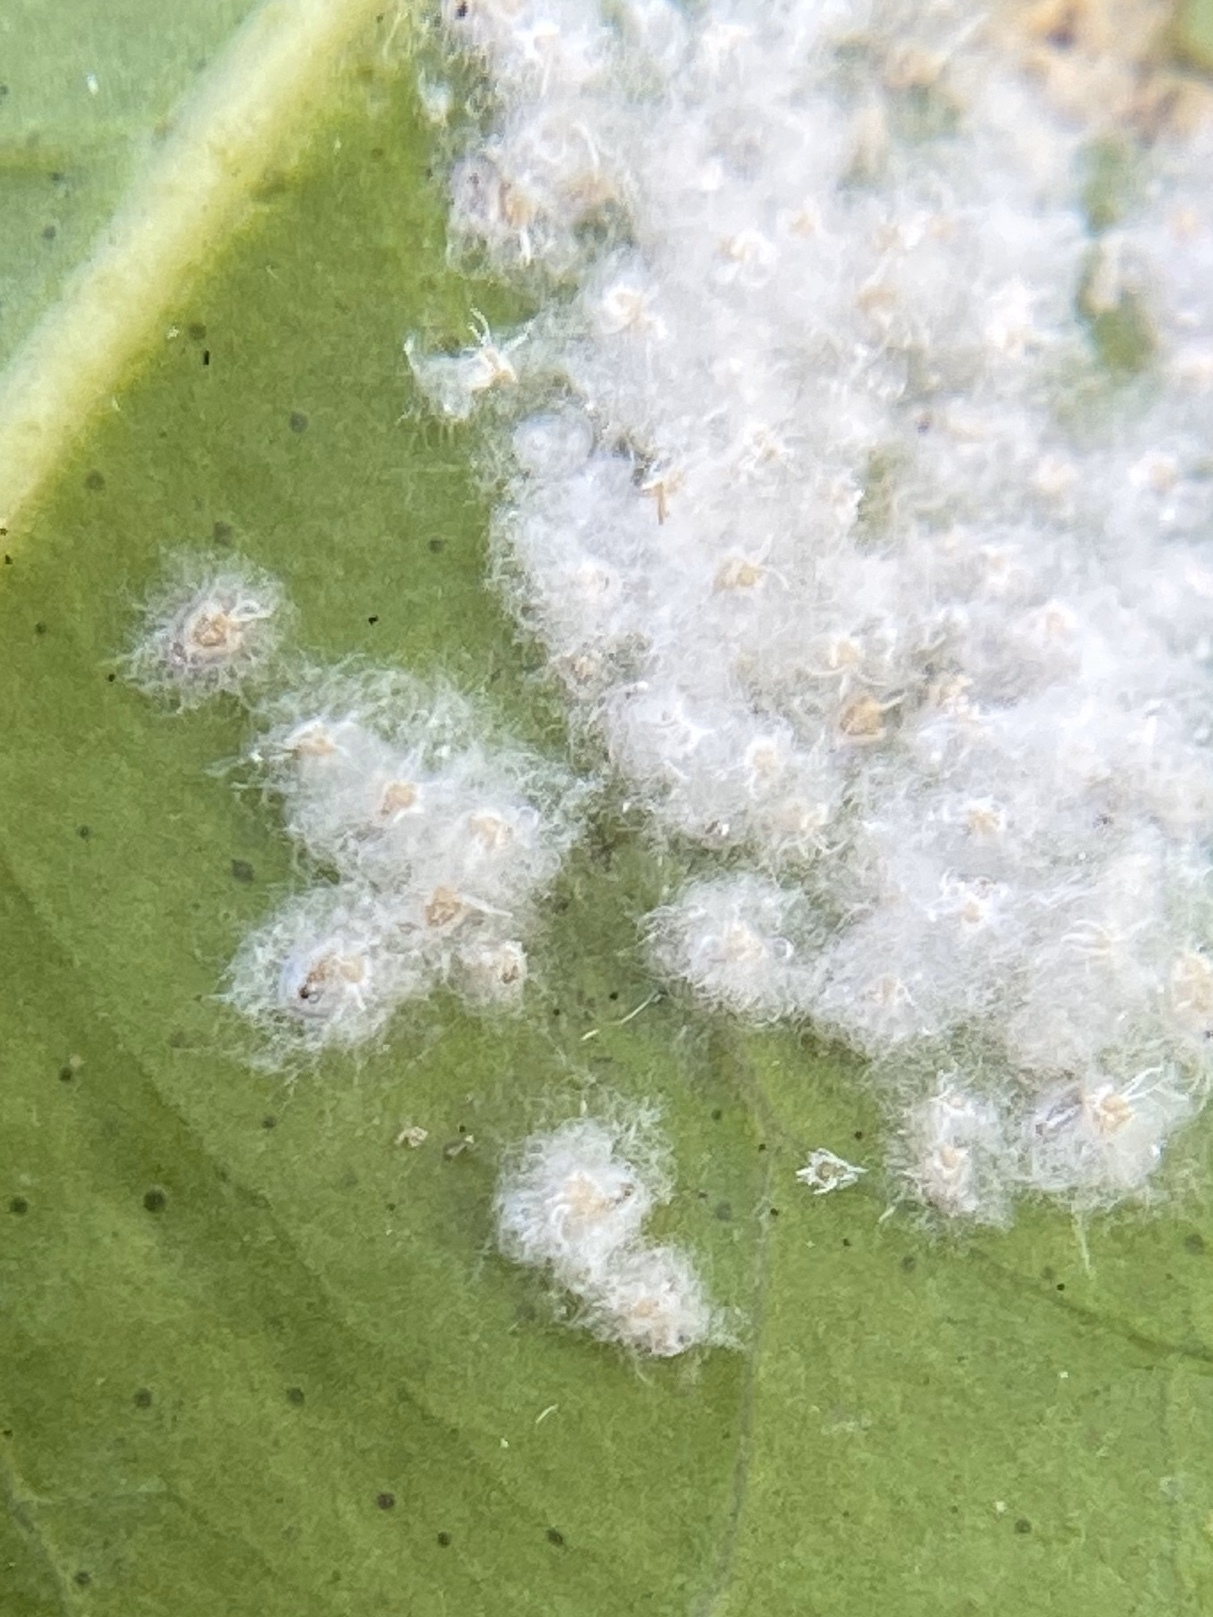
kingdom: Animalia
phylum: Arthropoda
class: Insecta
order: Hemiptera
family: Aleyrodidae
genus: Aleurothrixus
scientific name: Aleurothrixus floccosus
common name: Whitefly
